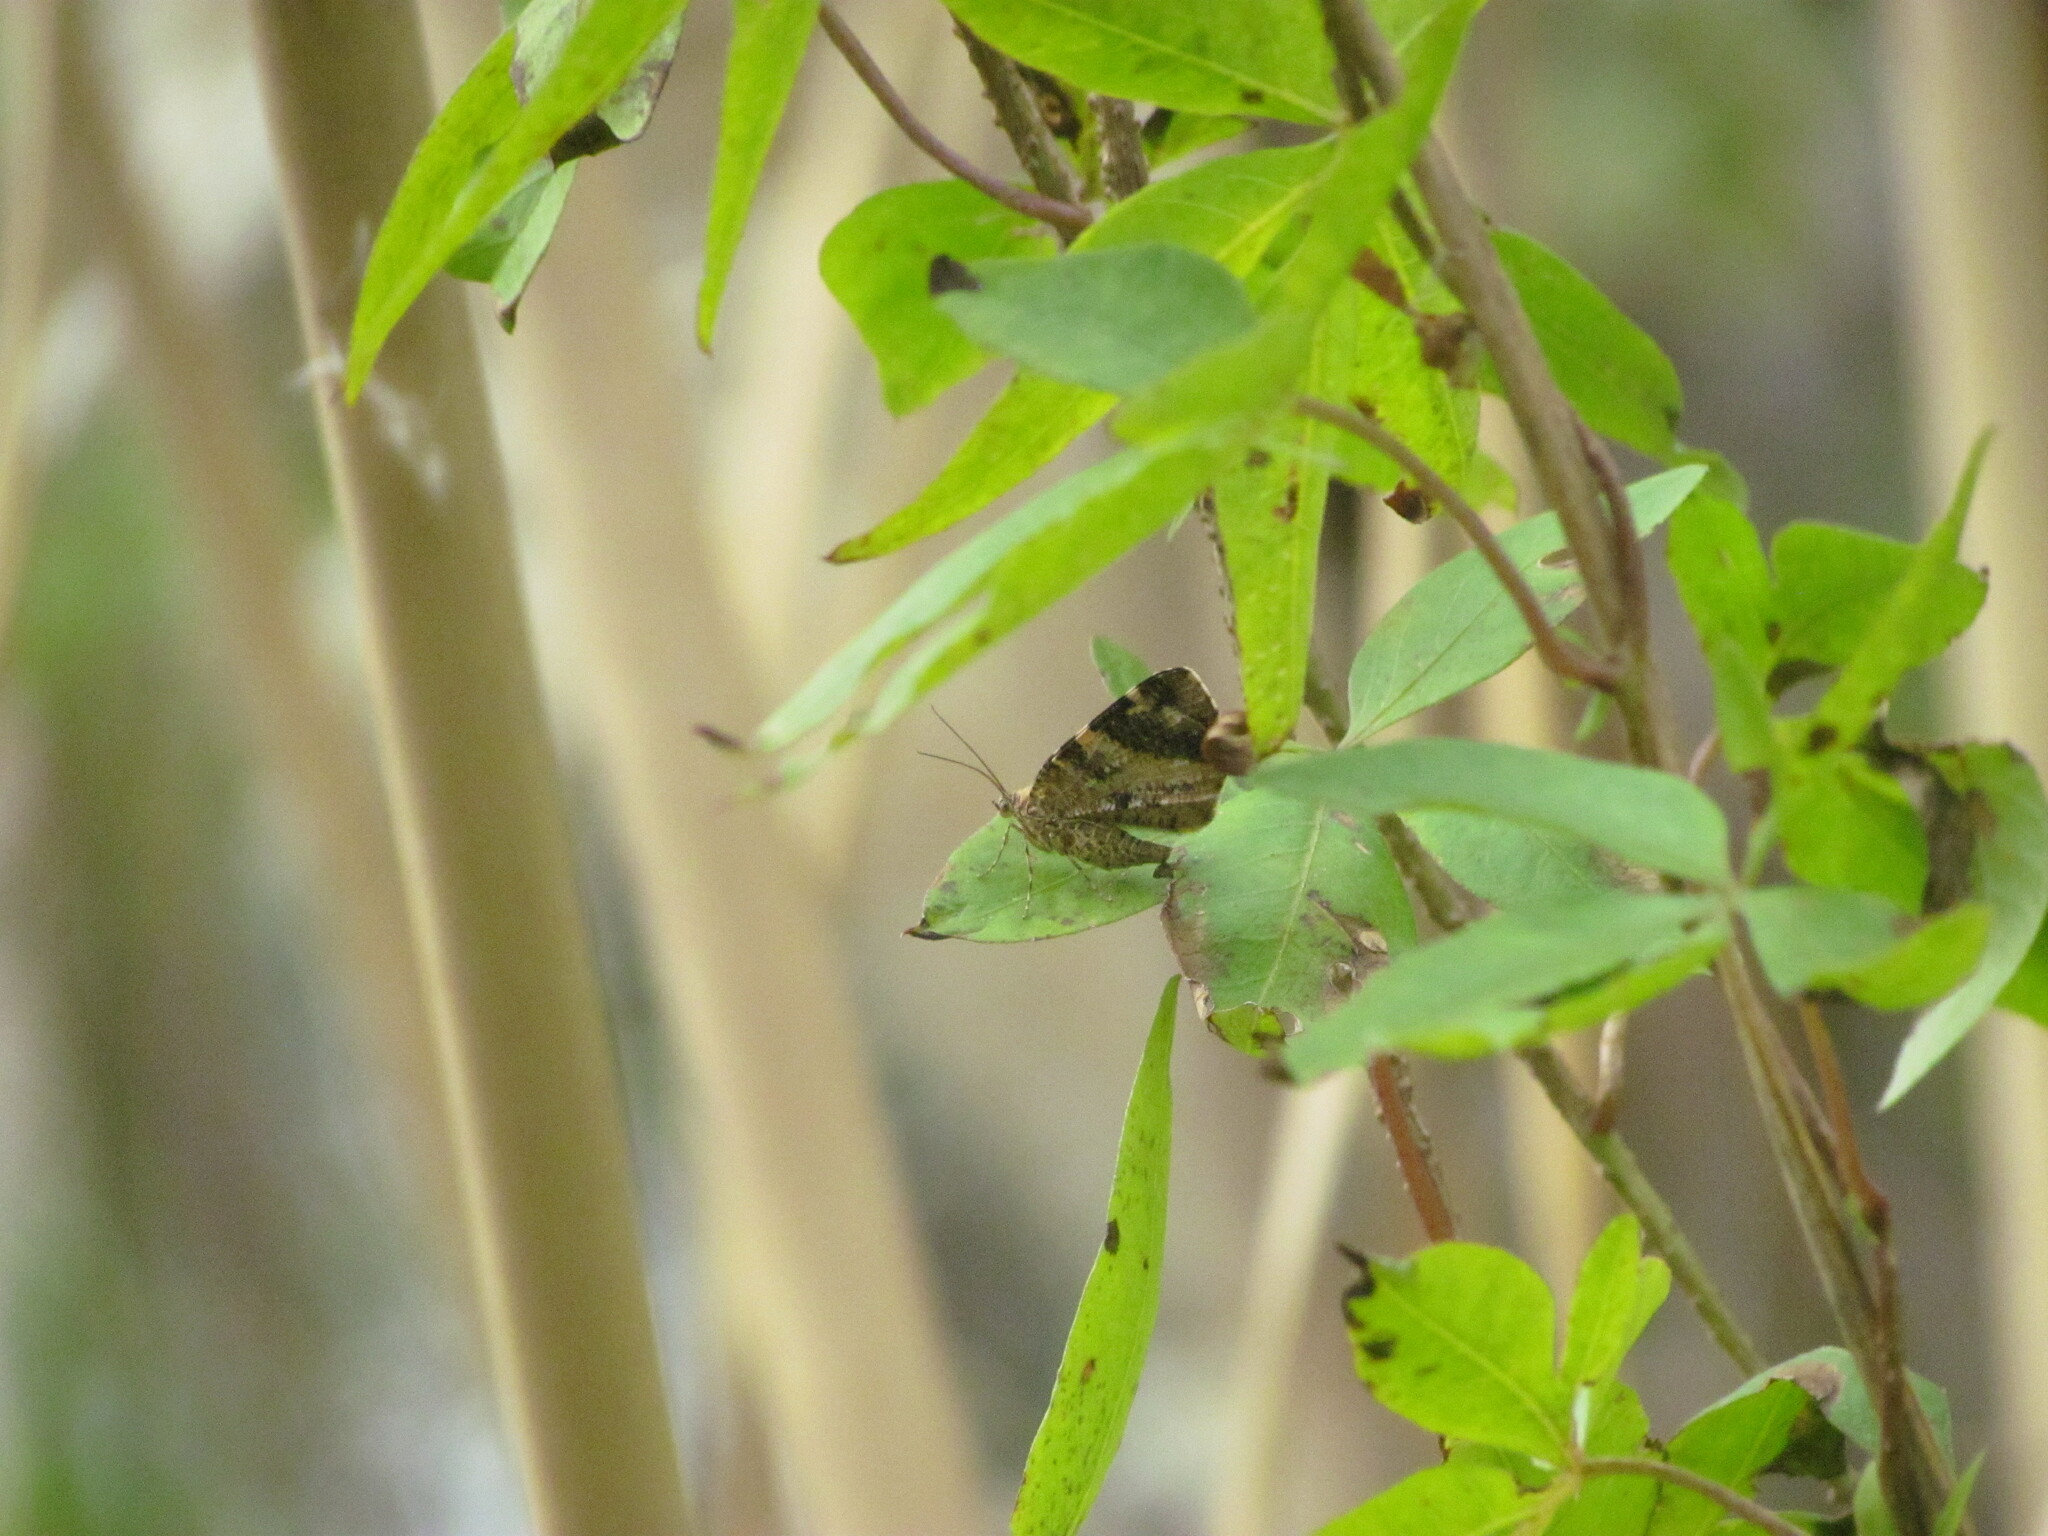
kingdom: Animalia
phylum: Arthropoda
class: Insecta
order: Lepidoptera
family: Geometridae
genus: Heterusia
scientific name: Heterusia quadruplicaria
